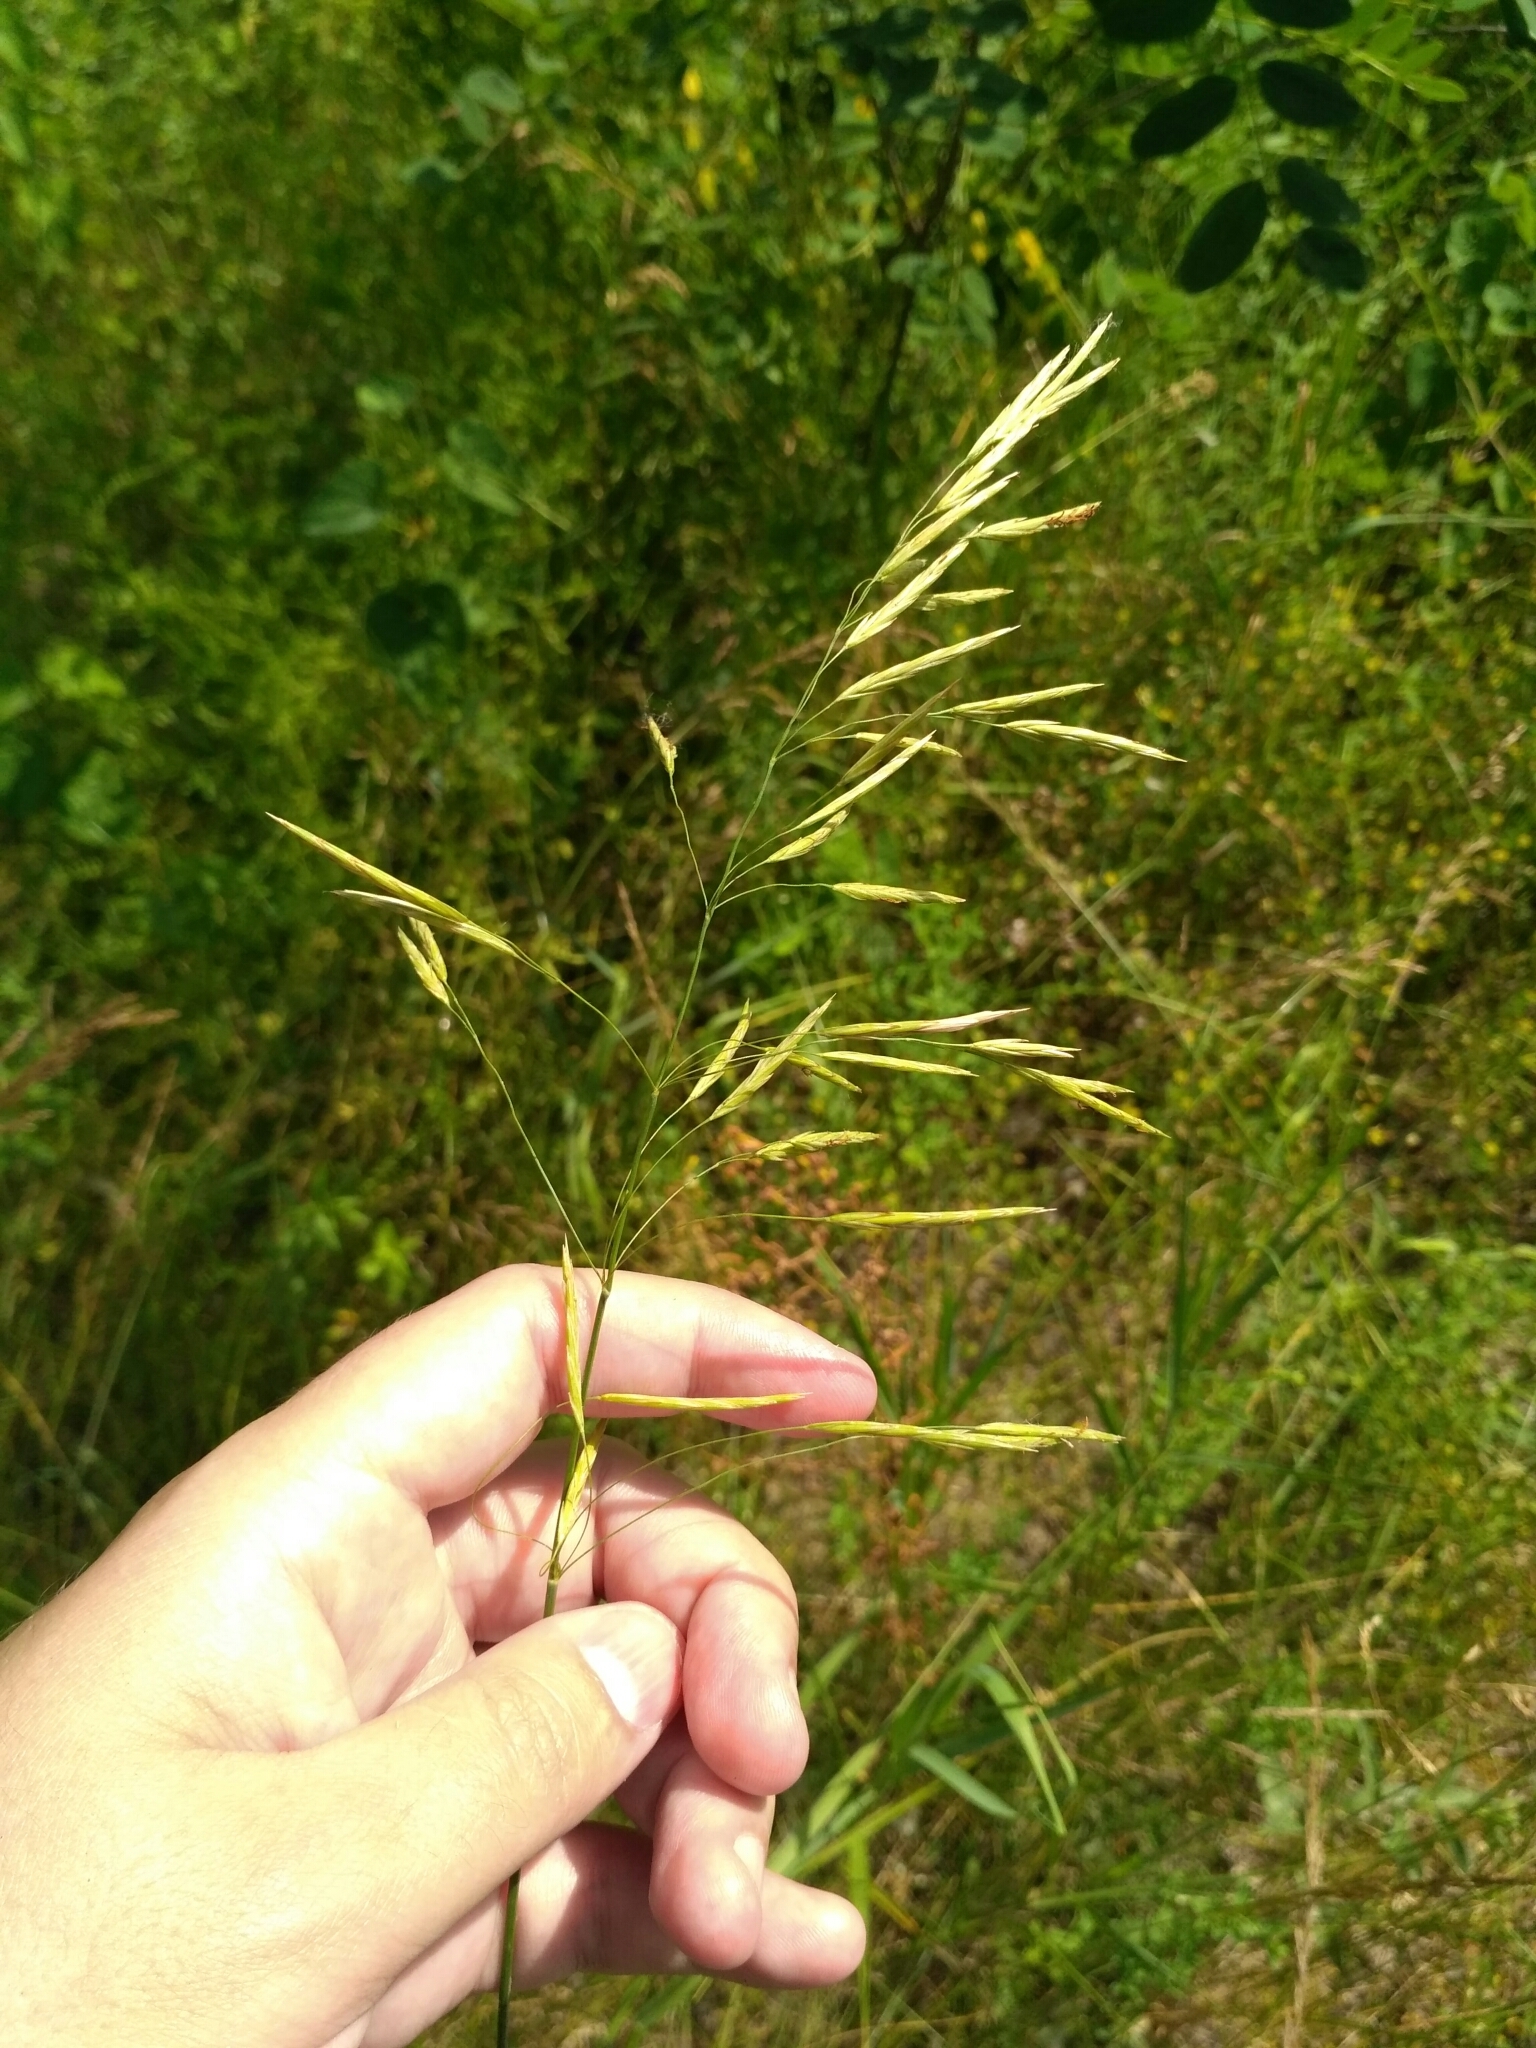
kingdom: Plantae
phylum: Tracheophyta
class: Liliopsida
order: Poales
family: Poaceae
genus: Bromus
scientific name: Bromus inermis
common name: Smooth brome
